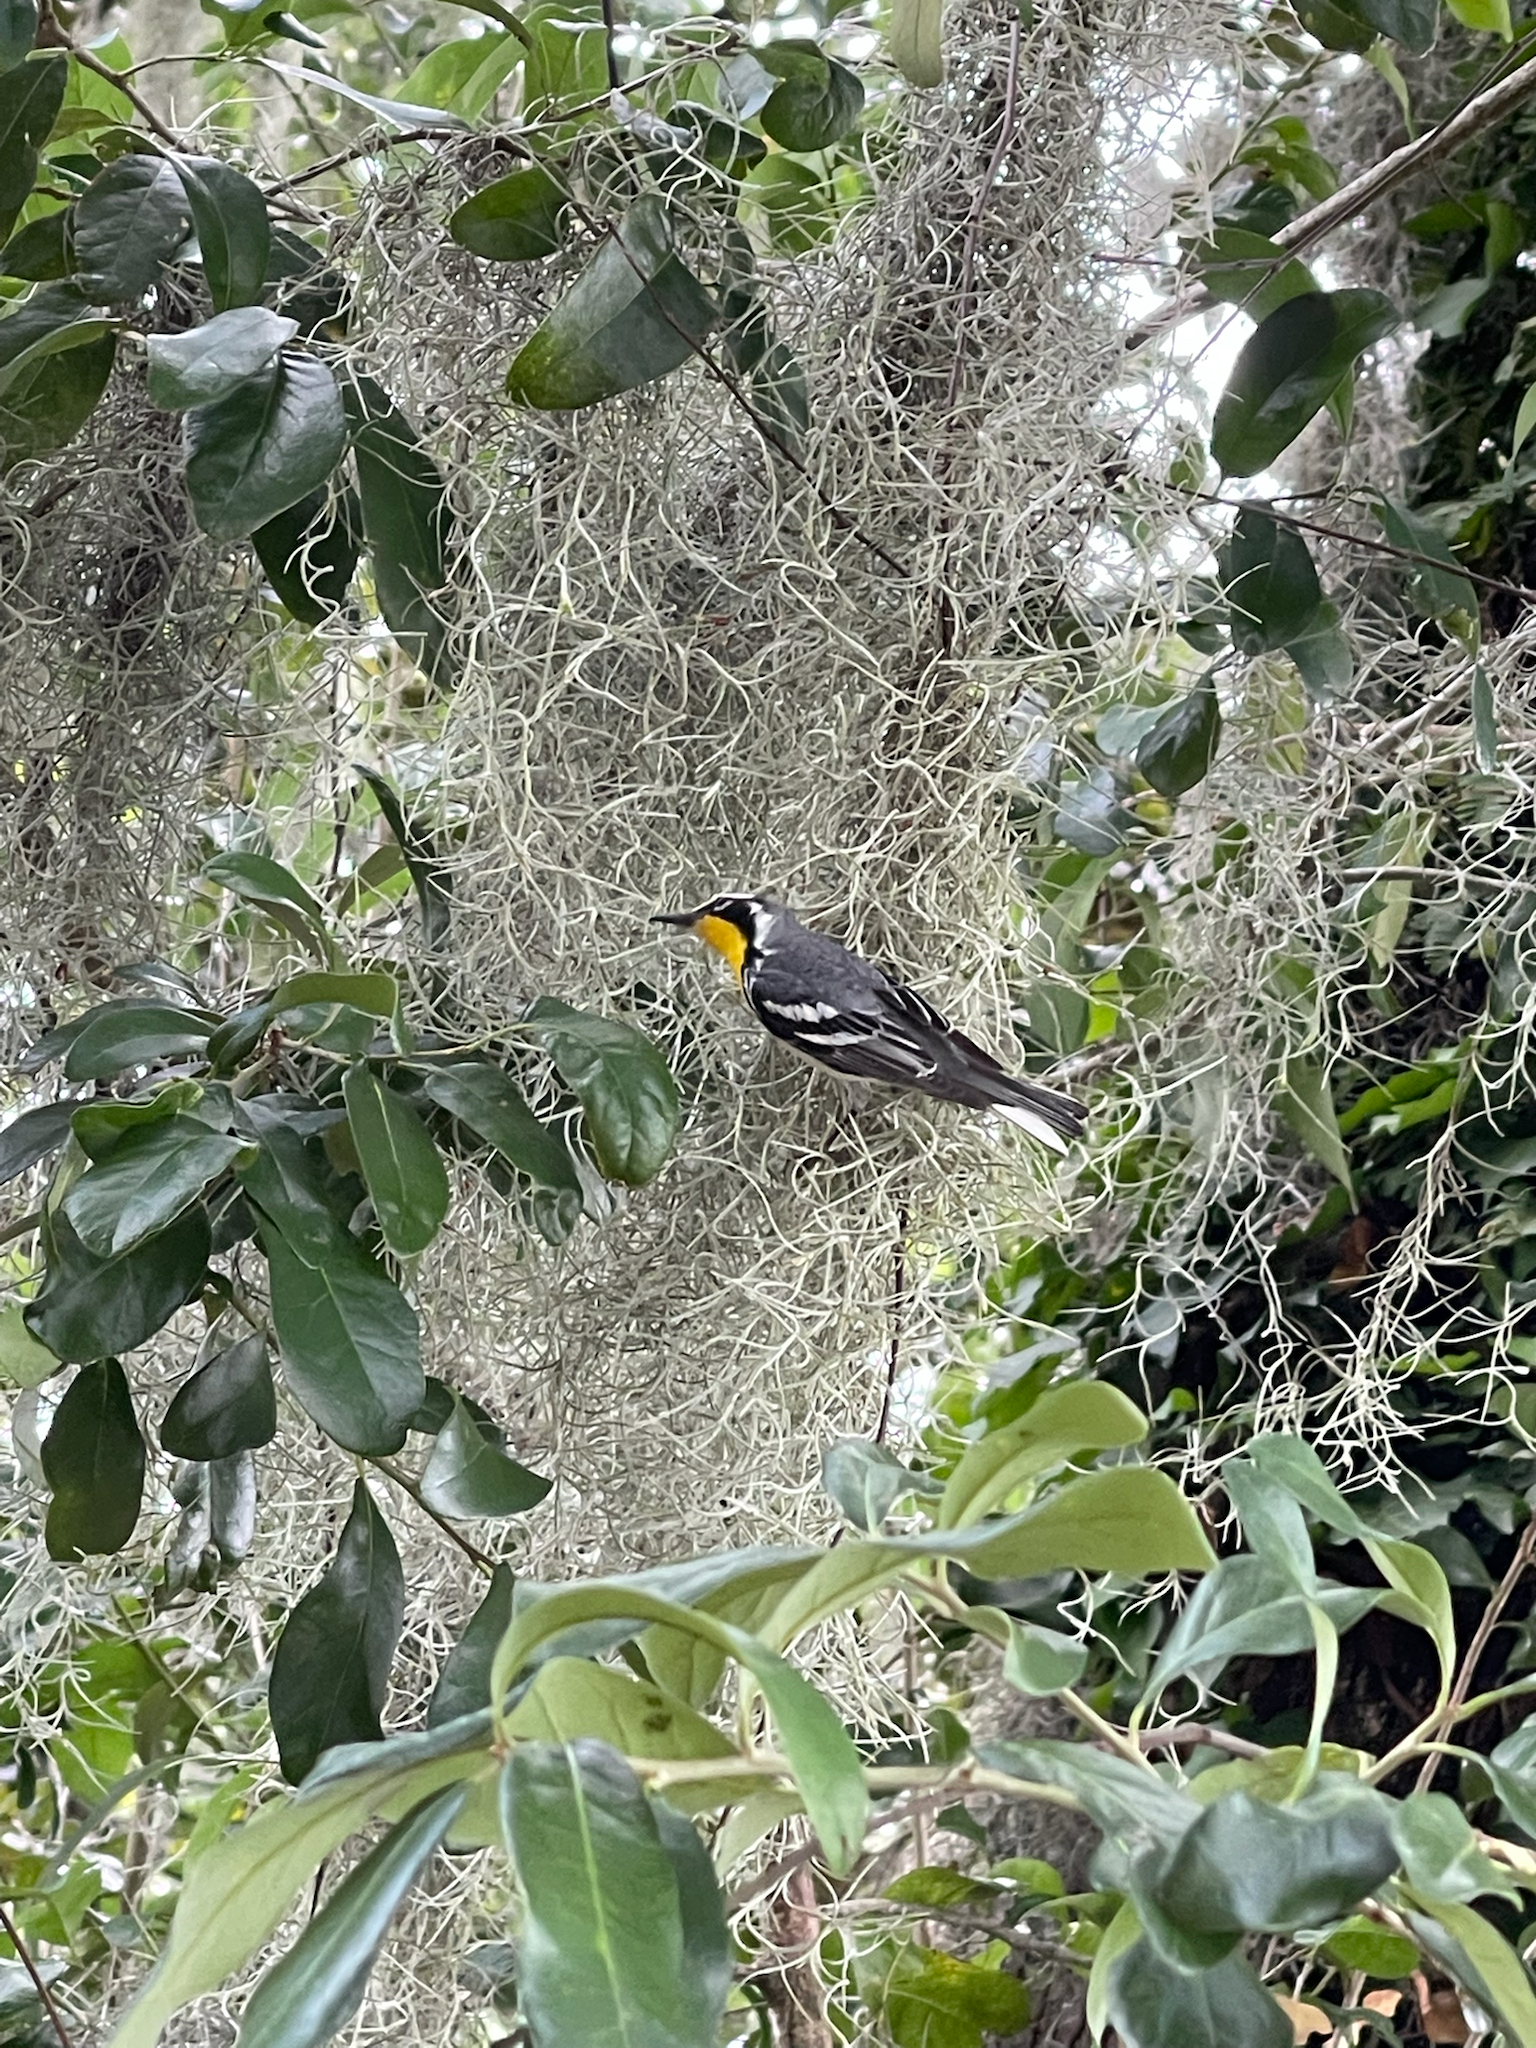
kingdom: Animalia
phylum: Chordata
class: Aves
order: Passeriformes
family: Parulidae
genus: Setophaga
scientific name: Setophaga dominica
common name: Yellow-throated warbler
